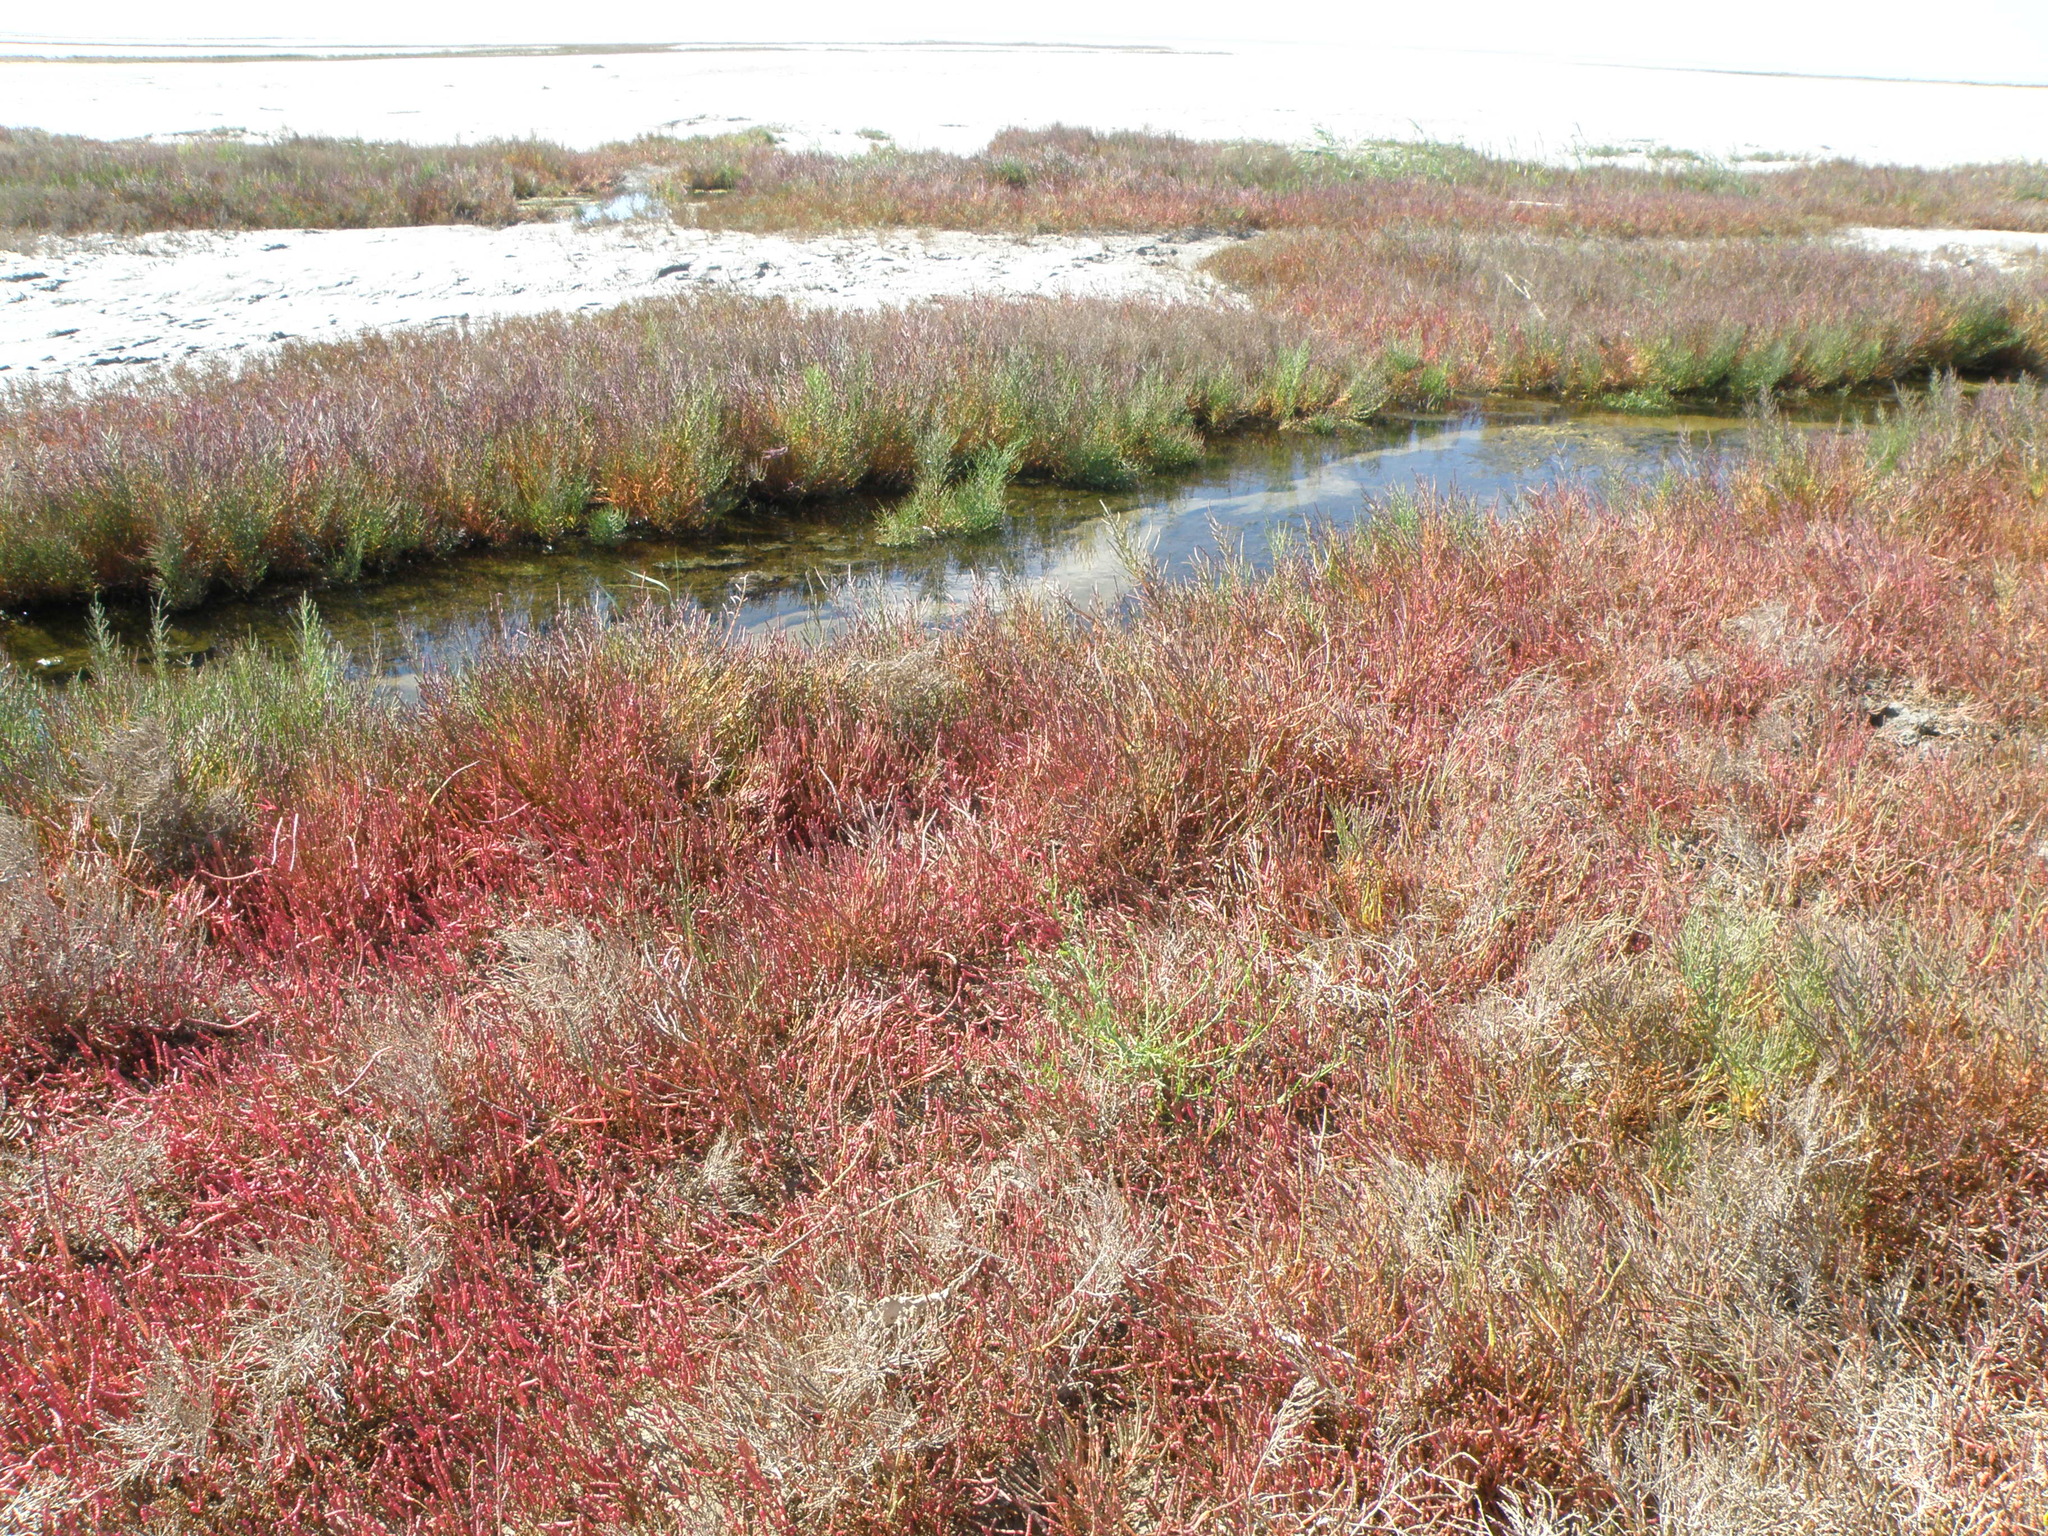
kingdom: Plantae
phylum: Tracheophyta
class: Magnoliopsida
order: Caryophyllales
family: Amaranthaceae
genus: Salicornia
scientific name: Salicornia perennans
